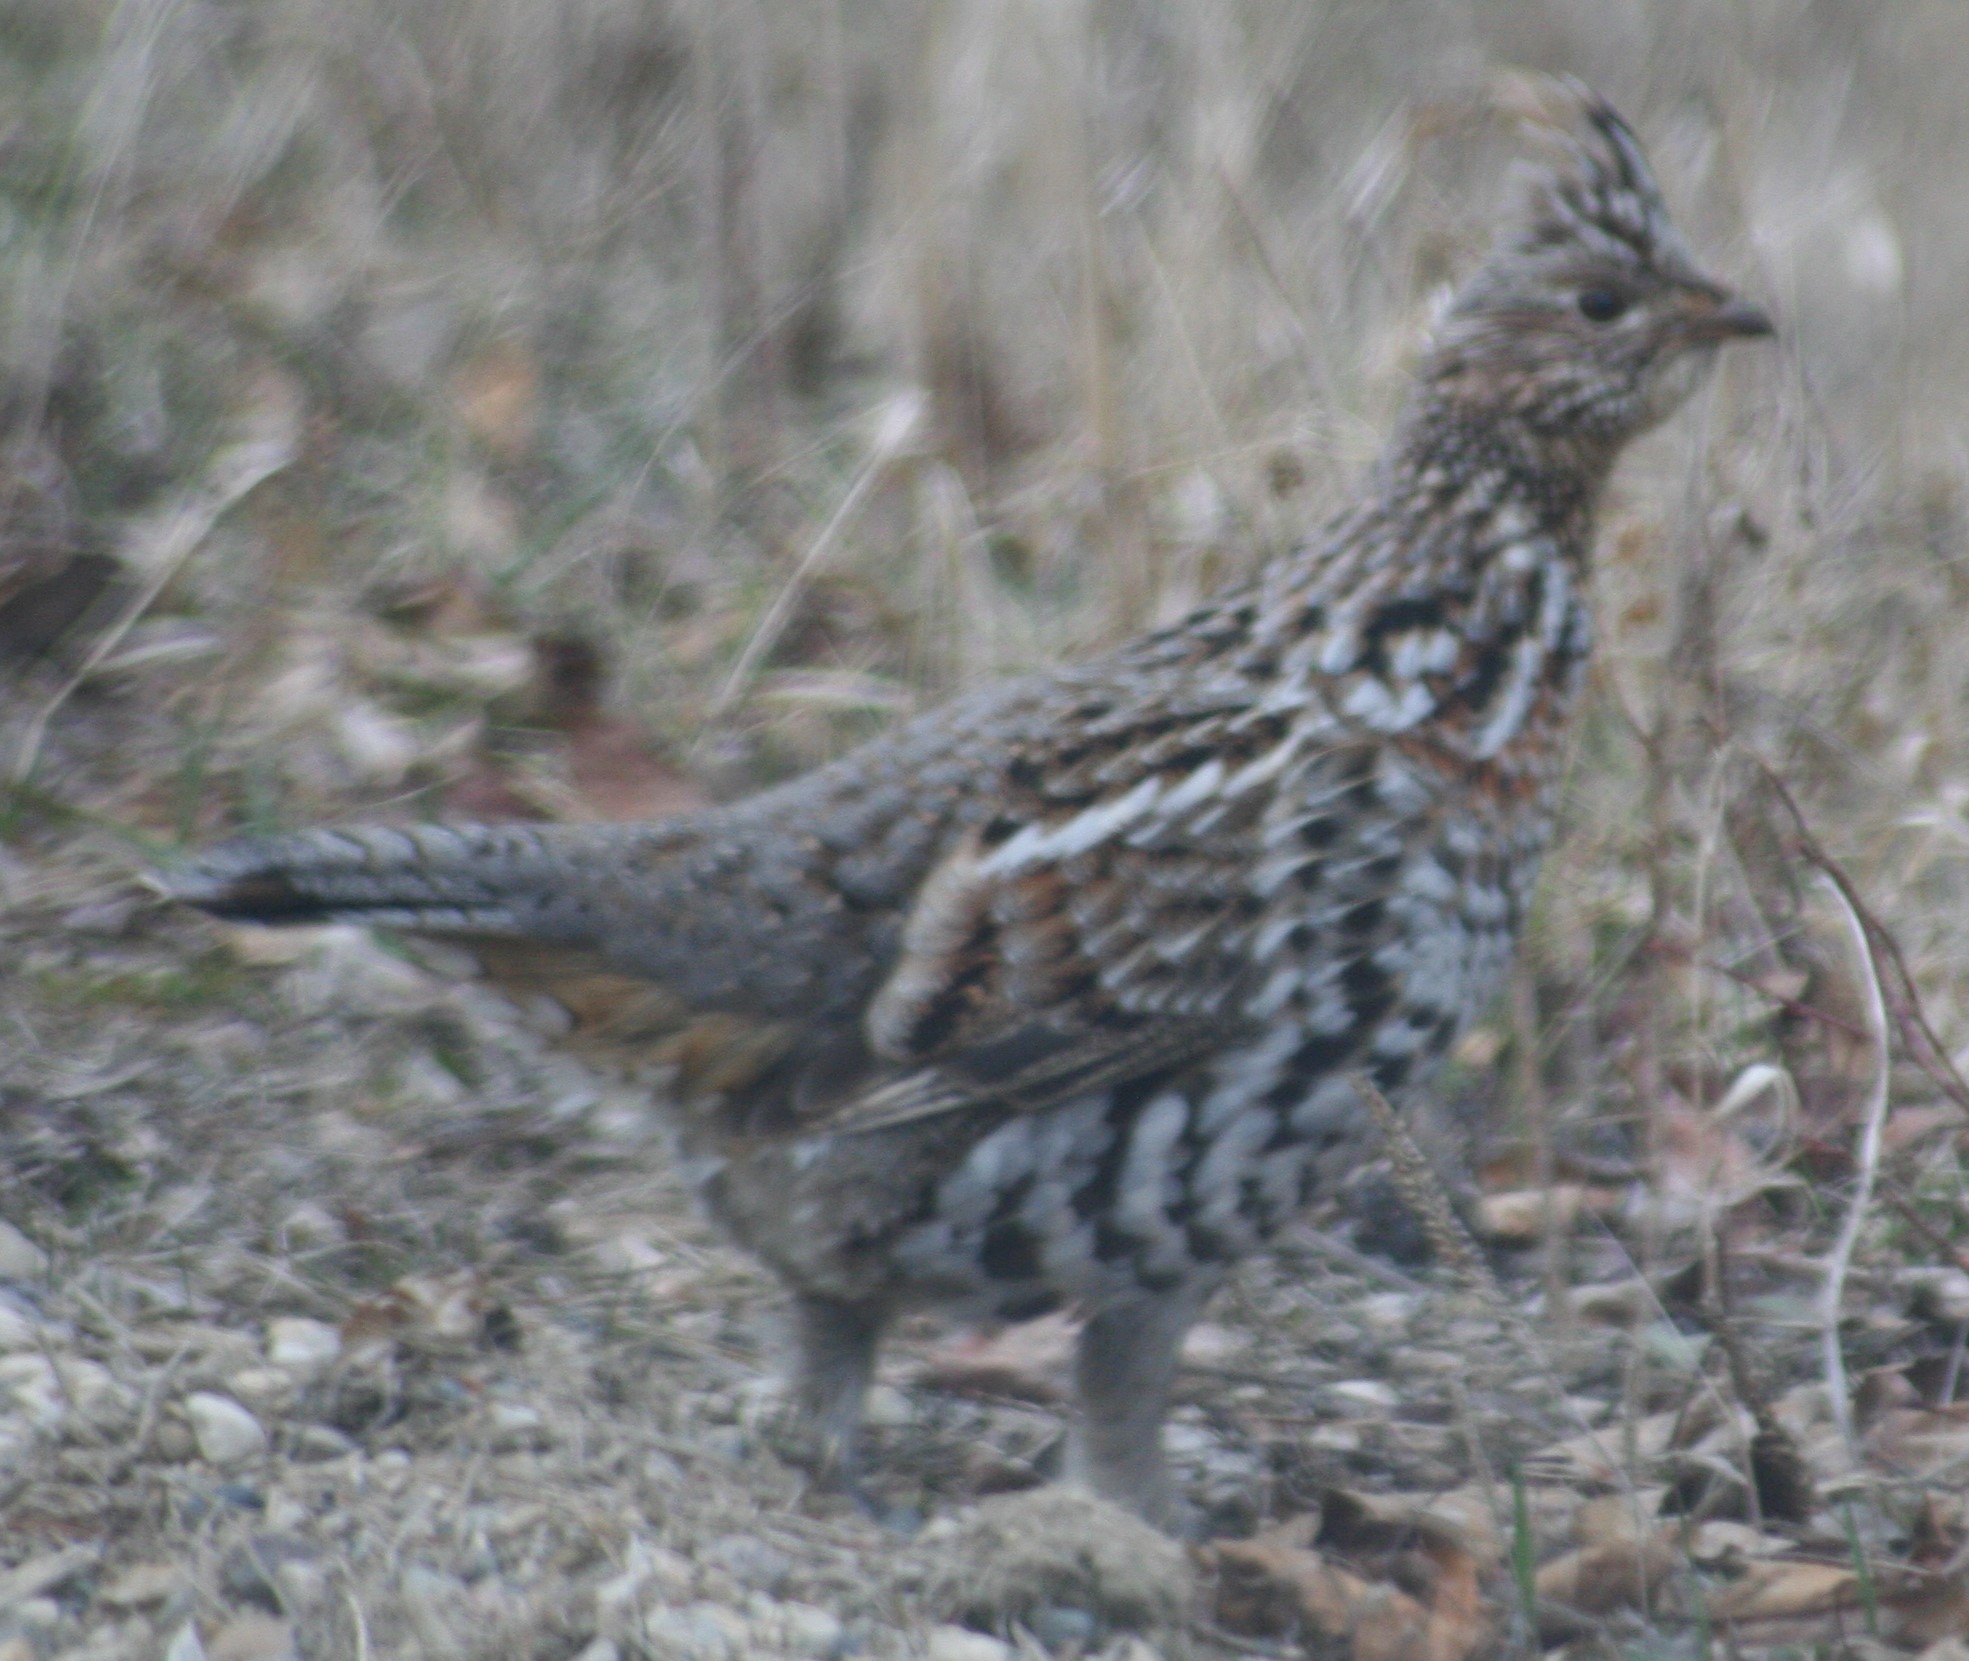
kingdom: Animalia
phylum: Chordata
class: Aves
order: Galliformes
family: Phasianidae
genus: Bonasa
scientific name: Bonasa umbellus
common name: Ruffed grouse
